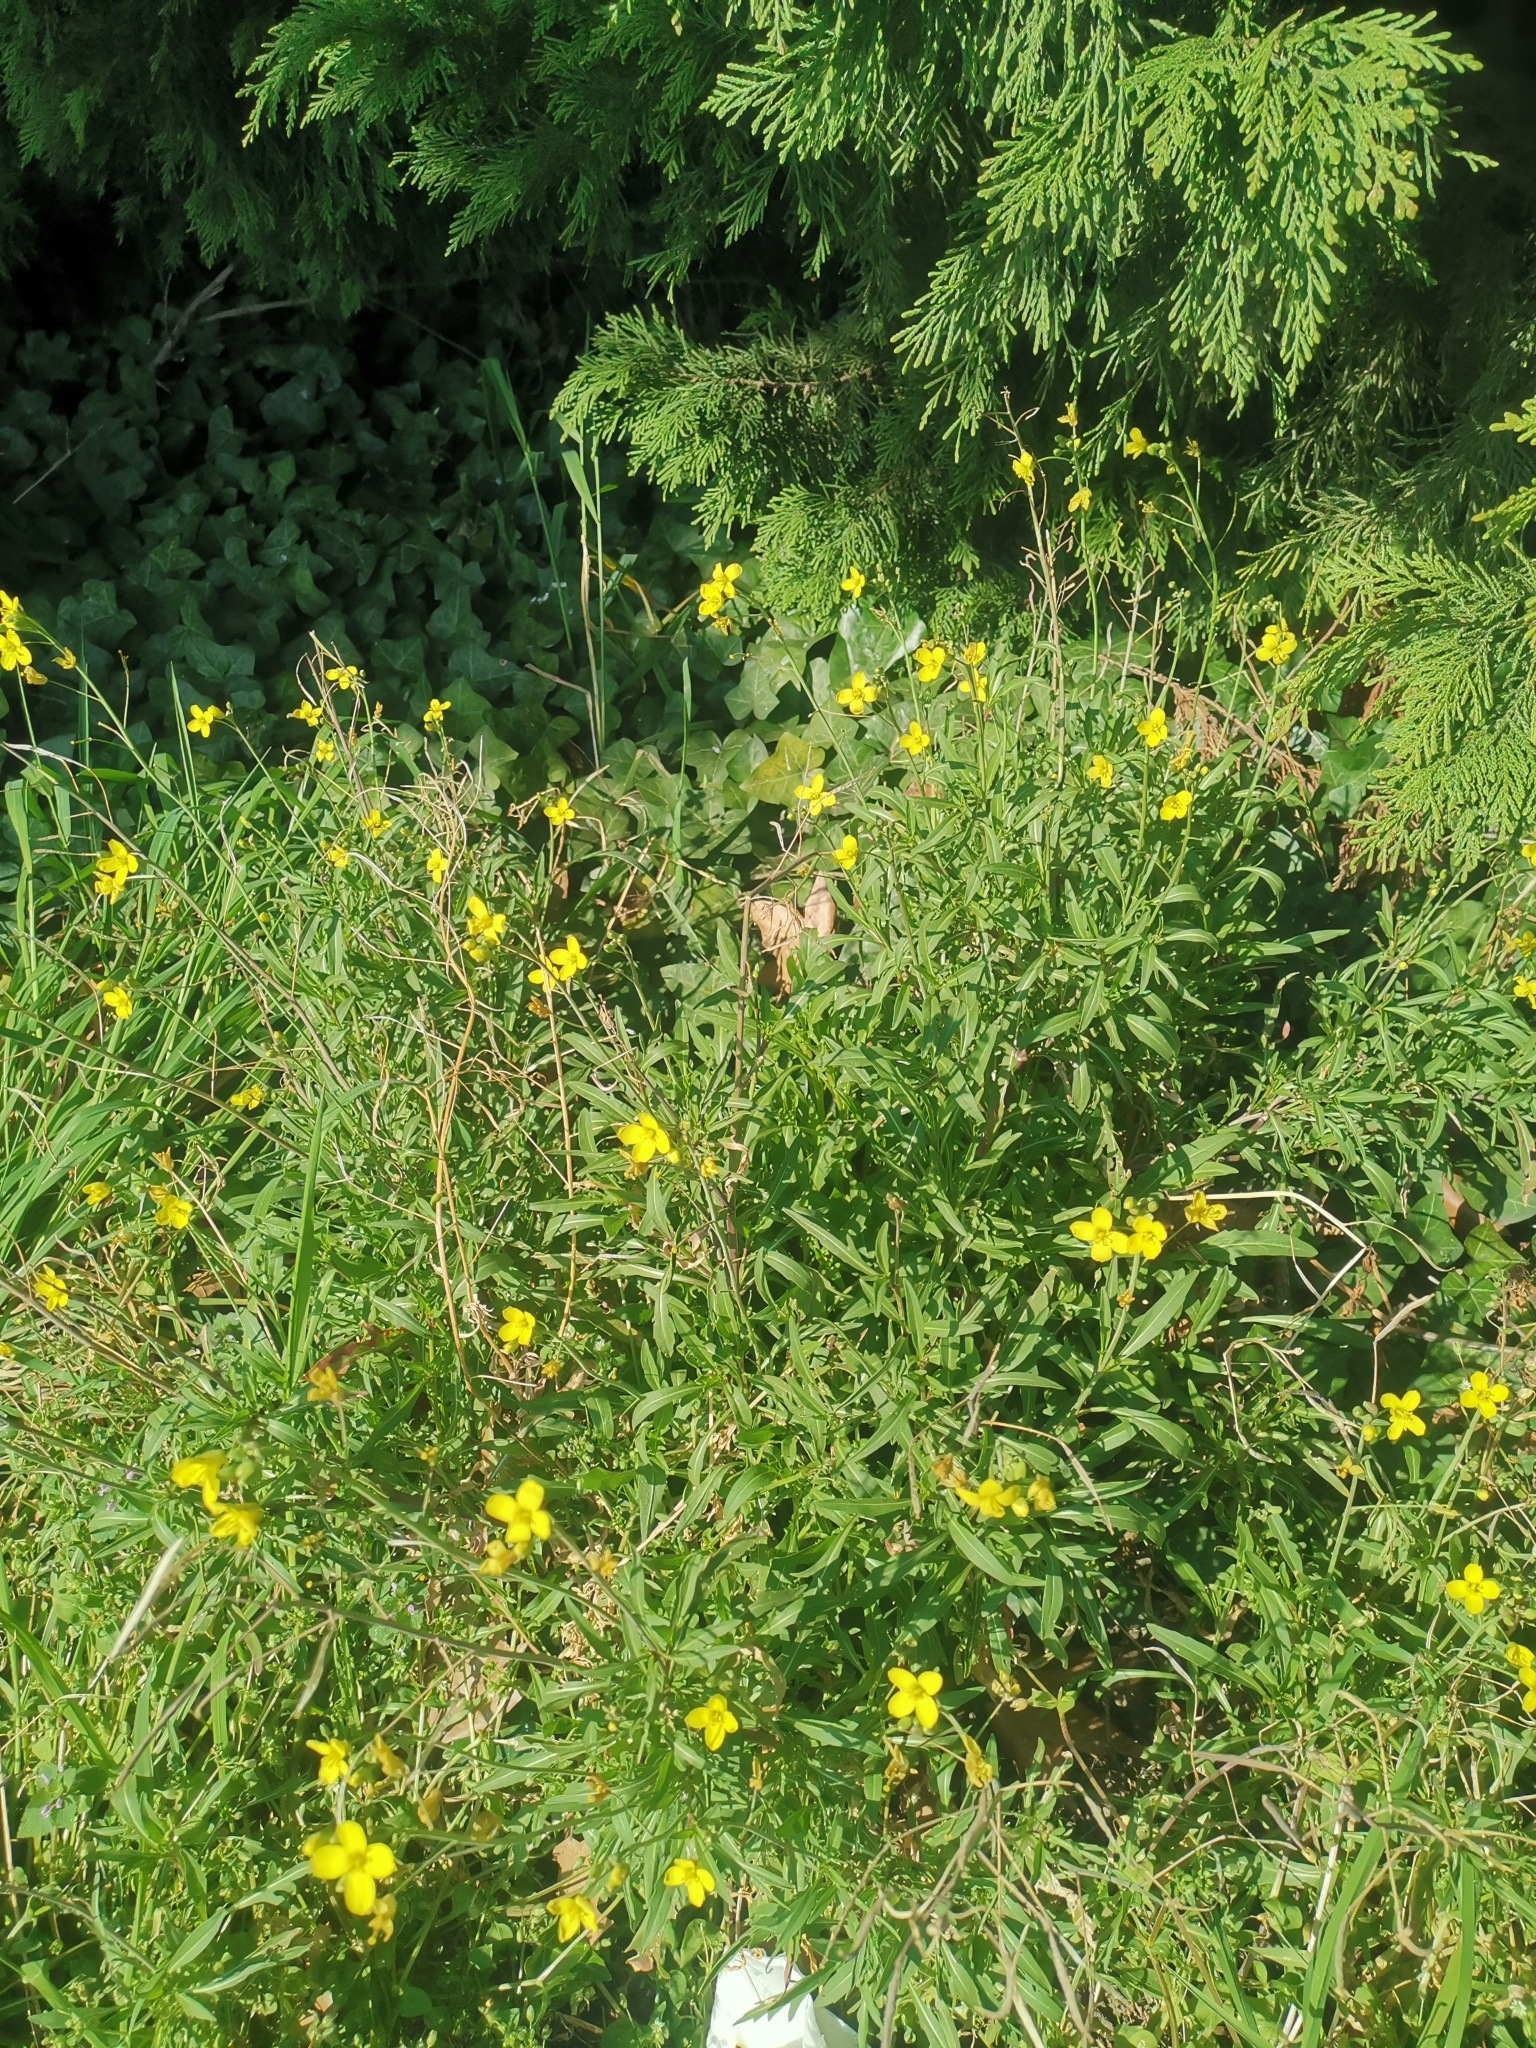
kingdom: Plantae
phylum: Tracheophyta
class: Magnoliopsida
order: Brassicales
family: Brassicaceae
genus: Diplotaxis
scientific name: Diplotaxis tenuifolia
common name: Perennial wall-rocket
